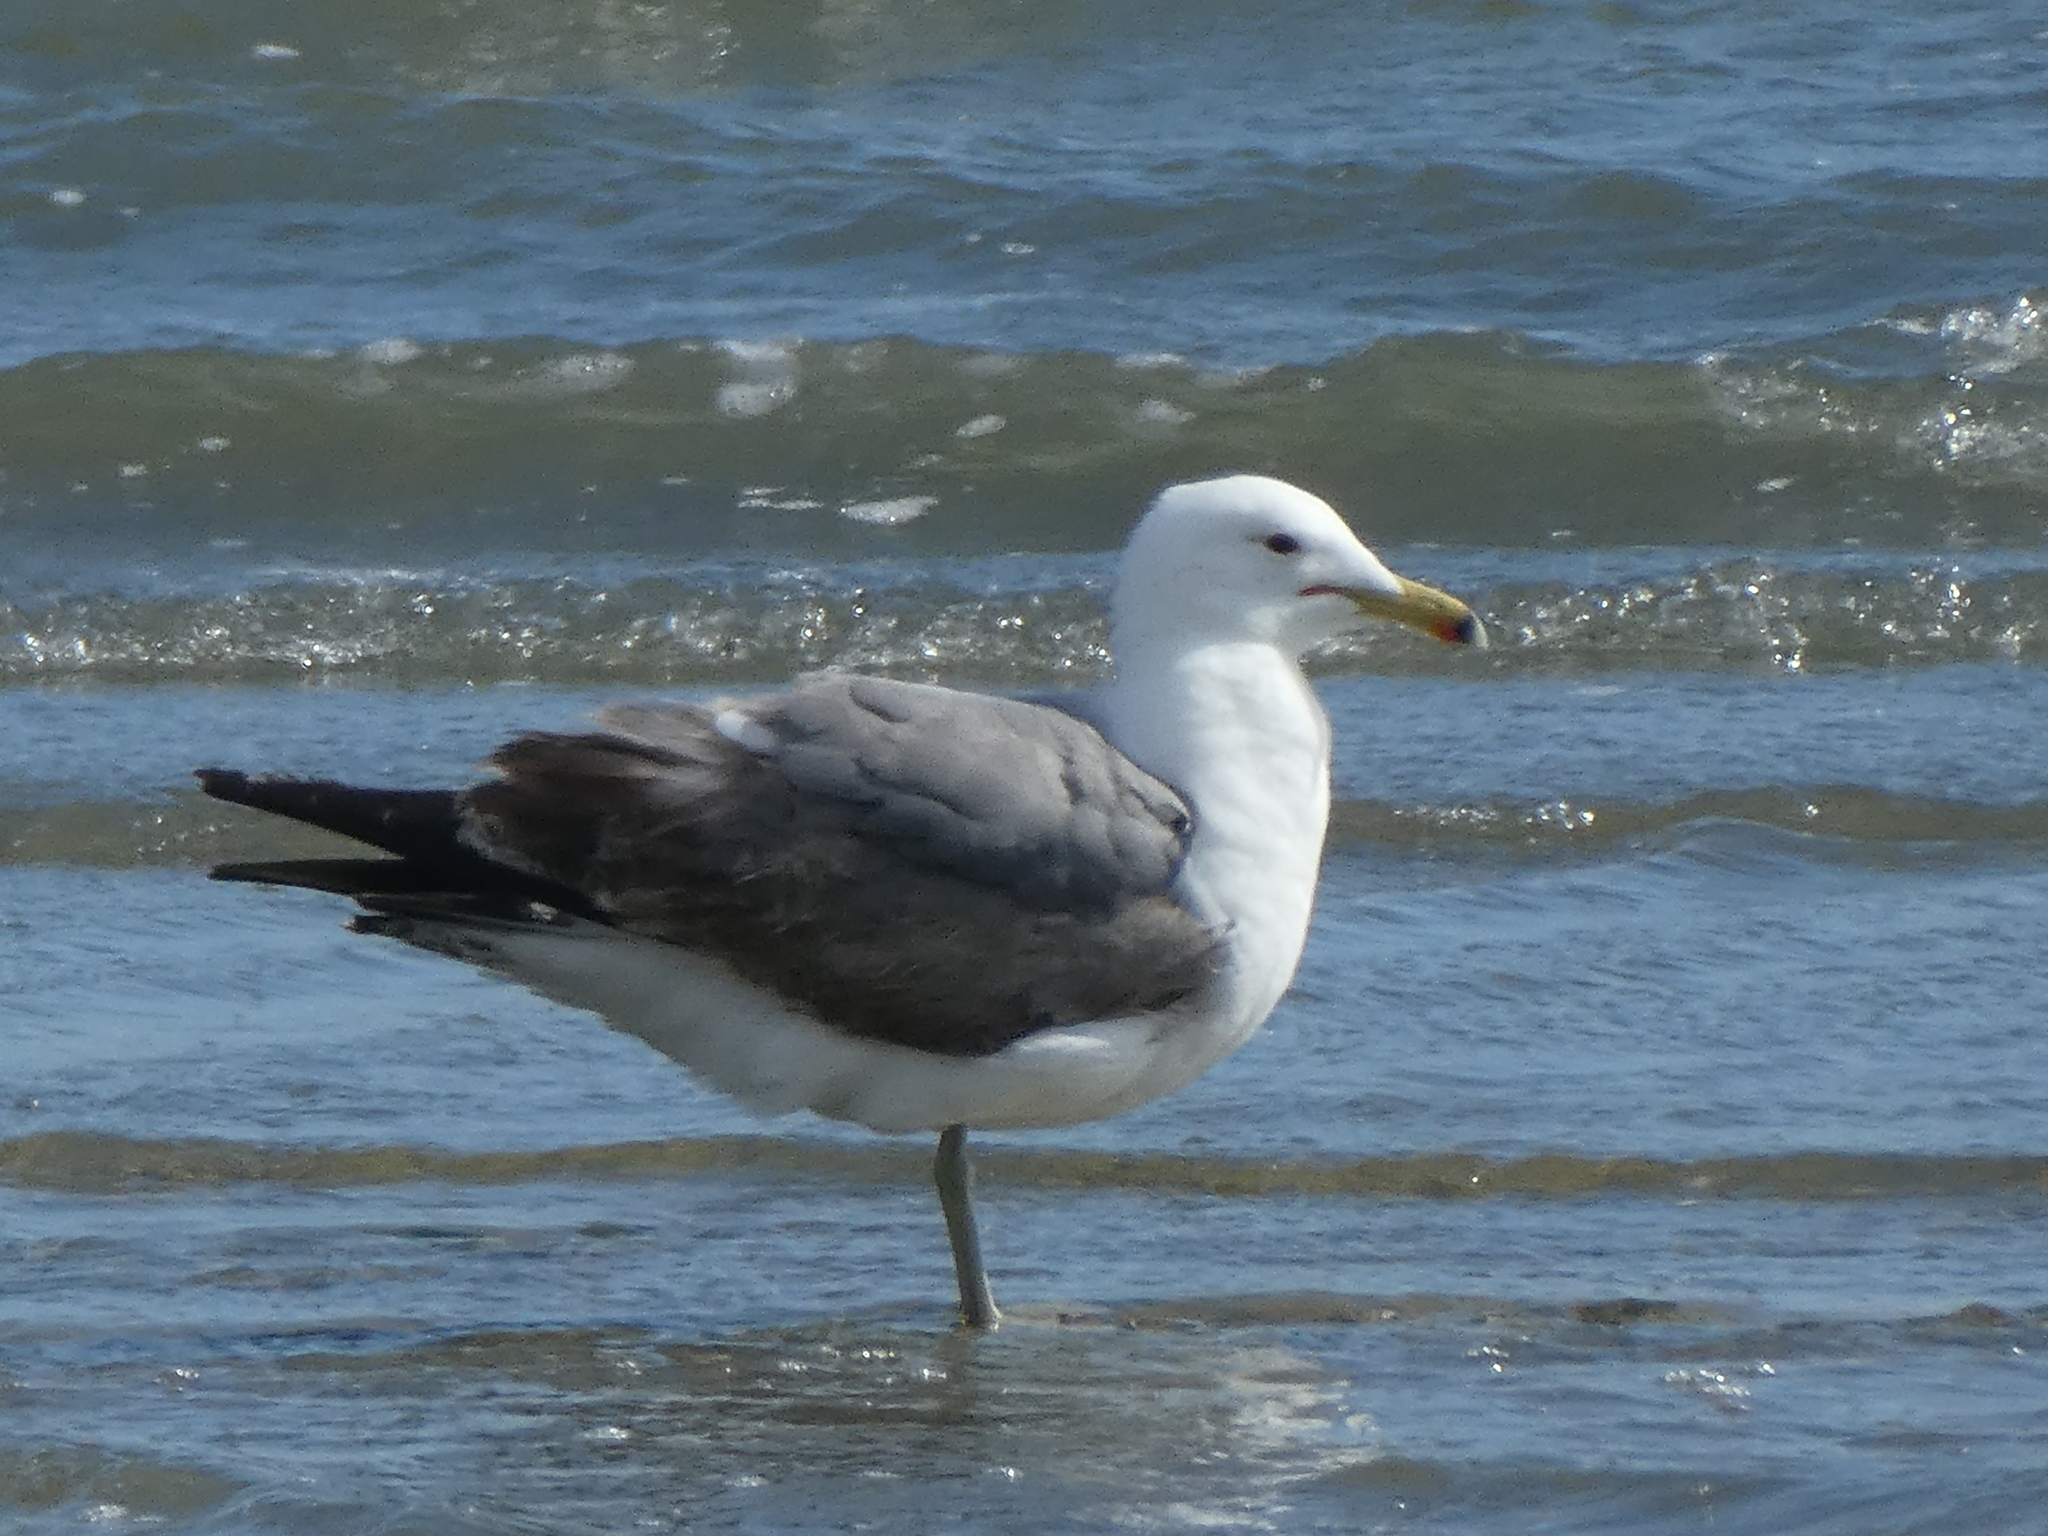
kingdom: Animalia
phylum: Chordata
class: Aves
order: Charadriiformes
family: Laridae
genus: Larus
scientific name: Larus californicus
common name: California gull
